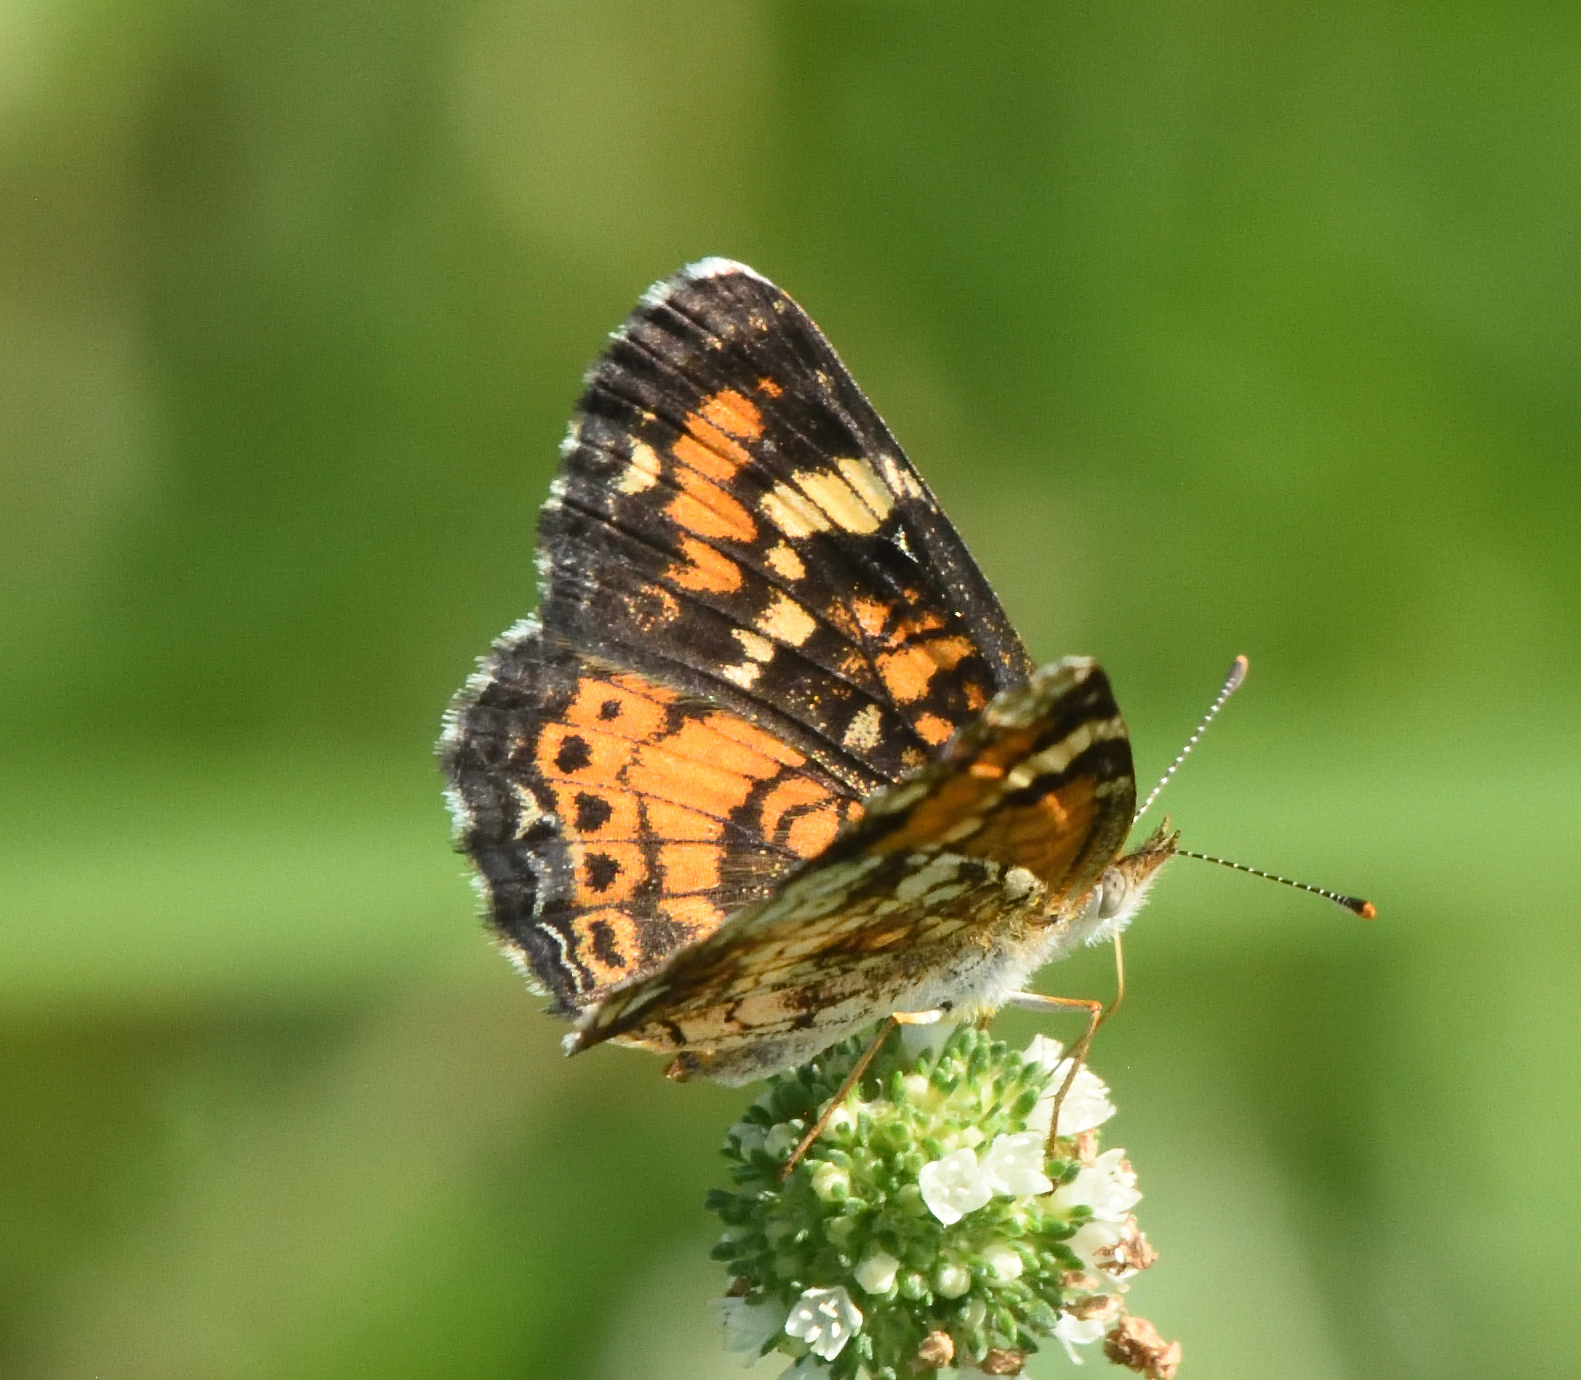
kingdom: Animalia
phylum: Arthropoda
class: Insecta
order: Lepidoptera
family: Nymphalidae
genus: Phyciodes
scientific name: Phyciodes phaon
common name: Phaon crescent
